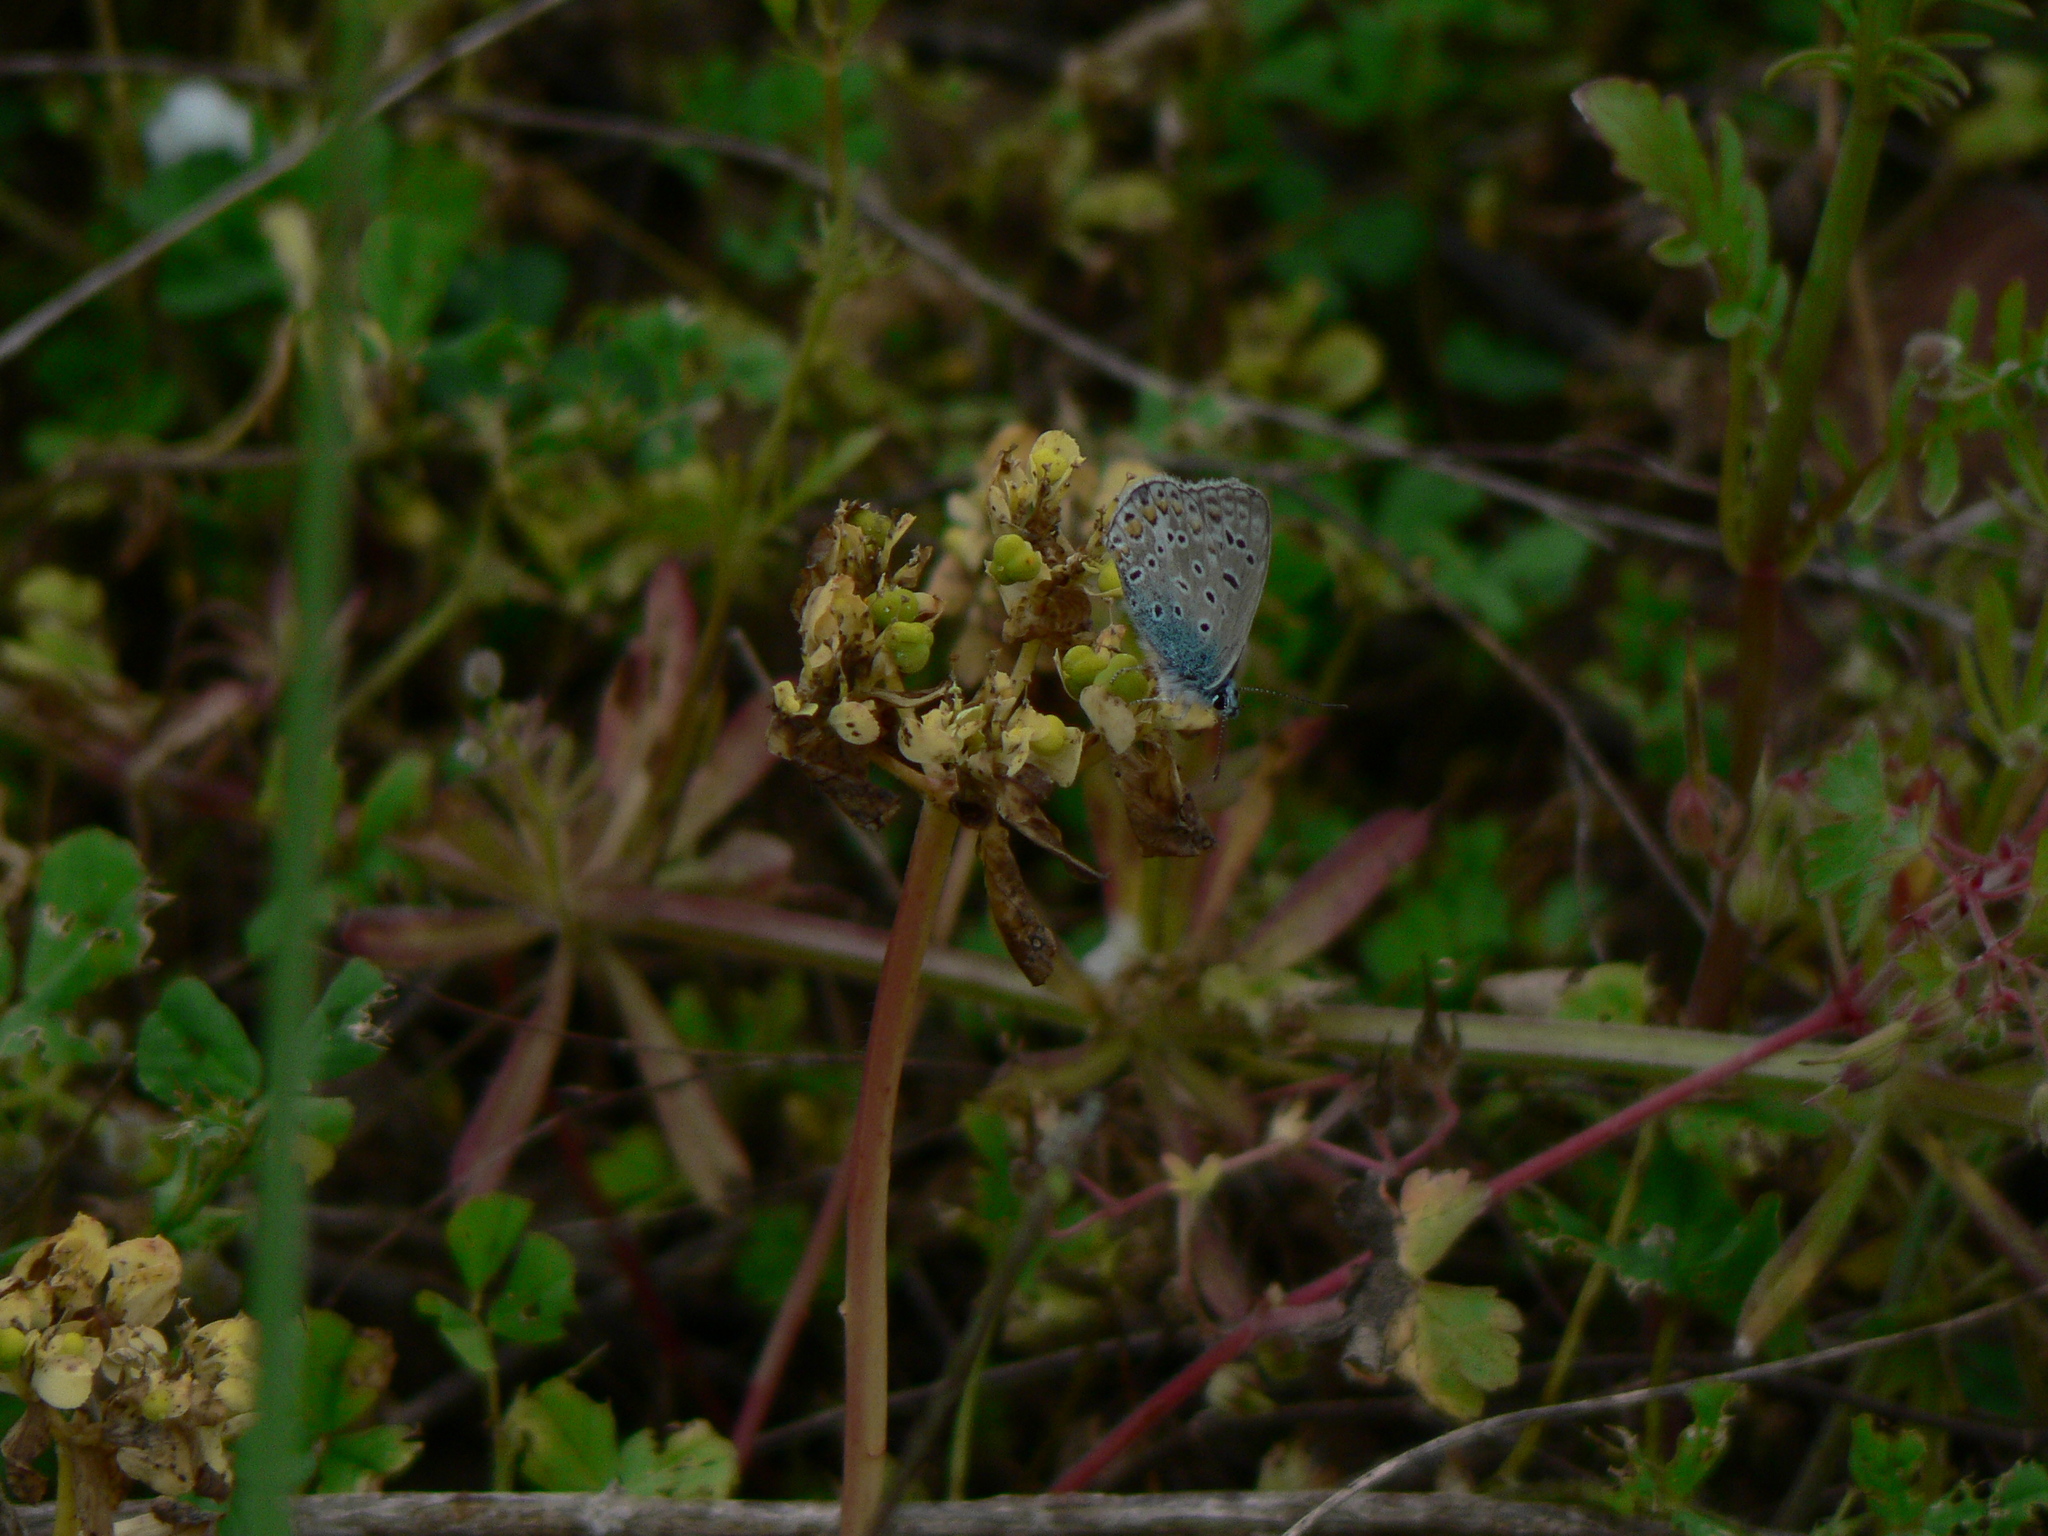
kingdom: Animalia
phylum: Arthropoda
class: Insecta
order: Lepidoptera
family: Lycaenidae
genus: Polyommatus
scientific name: Polyommatus icarus
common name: Common blue
